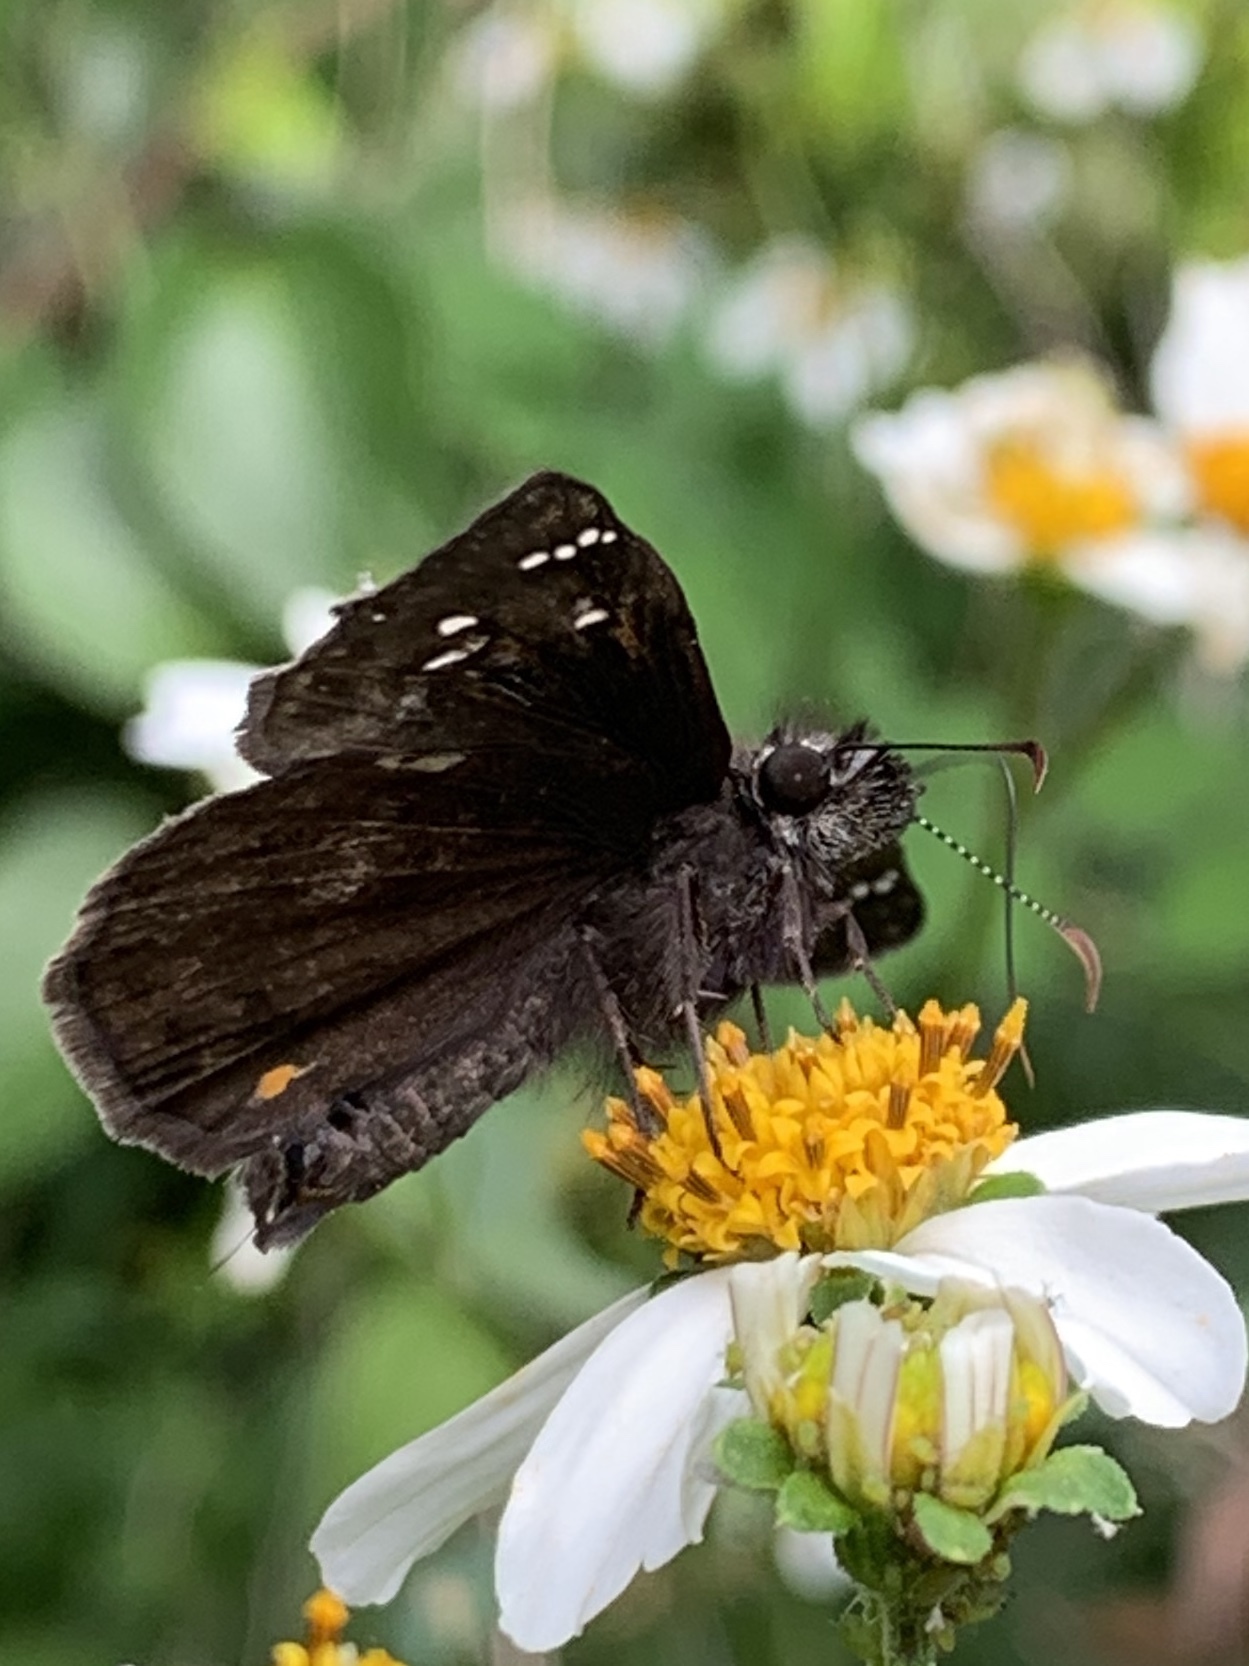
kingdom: Animalia
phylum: Arthropoda
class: Insecta
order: Lepidoptera
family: Hesperiidae
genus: Erynnis
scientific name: Erynnis horatius
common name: Horace's duskywing
